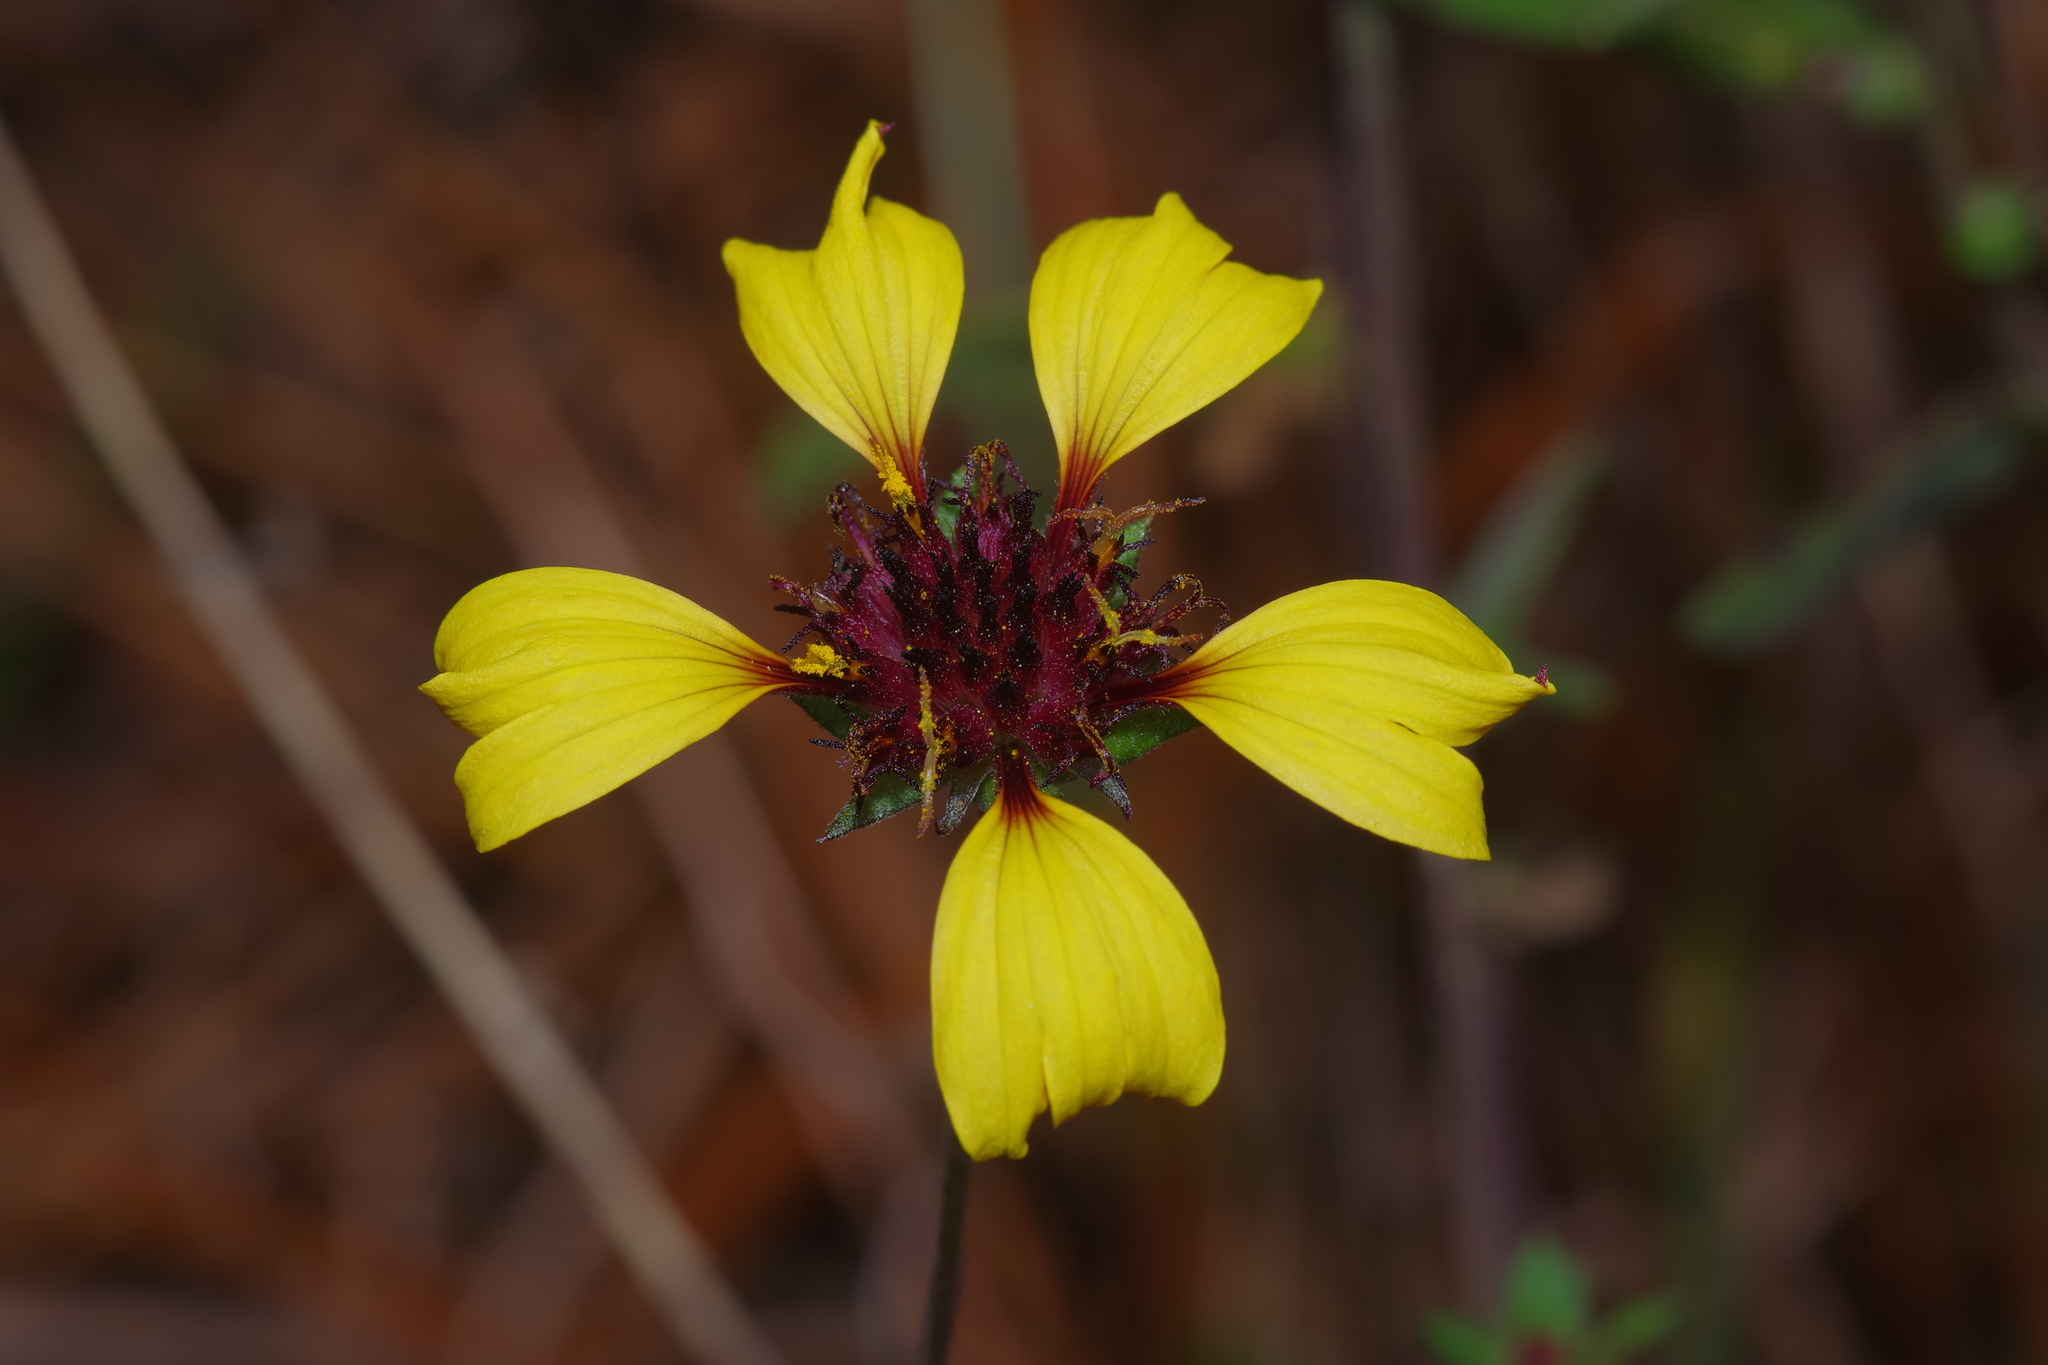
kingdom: Plantae
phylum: Tracheophyta
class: Magnoliopsida
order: Asterales
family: Asteraceae
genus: Gaillardia
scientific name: Gaillardia aestivalis
